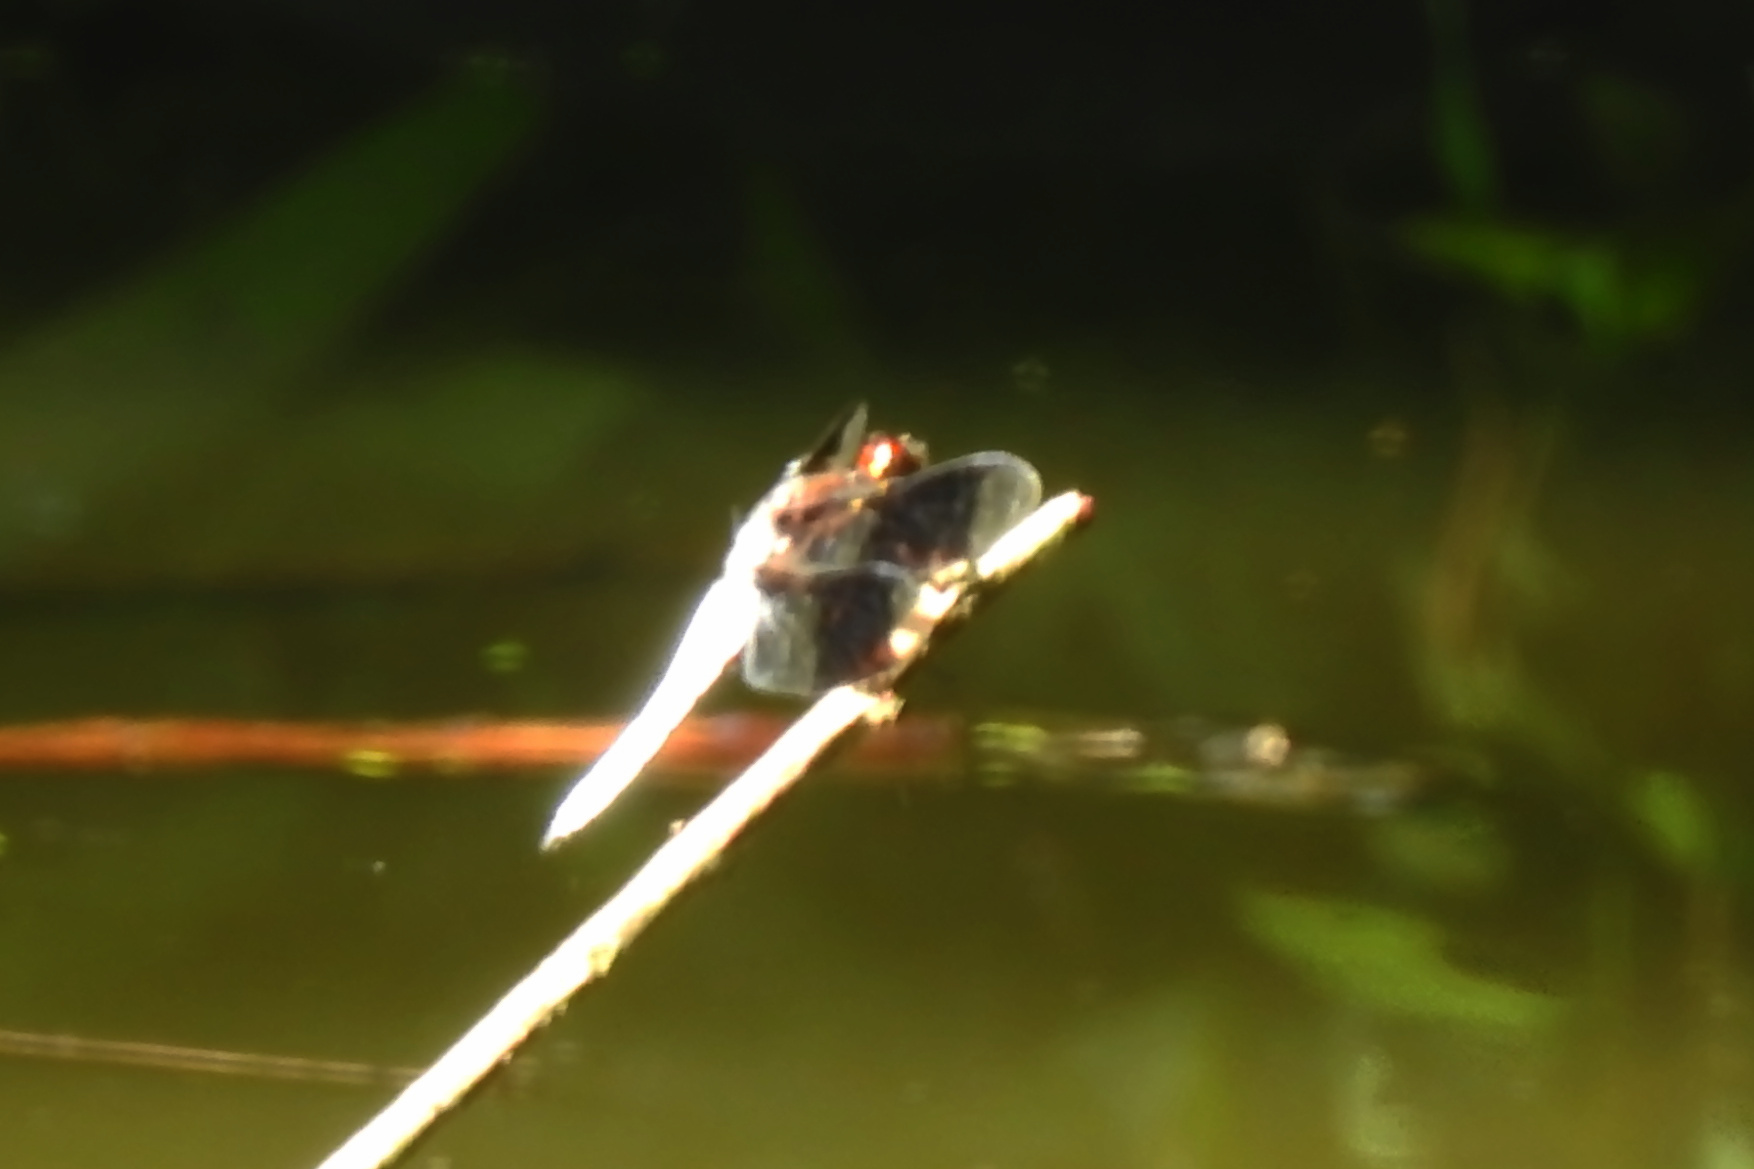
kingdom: Animalia
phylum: Arthropoda
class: Insecta
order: Odonata
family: Libellulidae
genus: Plathemis
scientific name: Plathemis lydia
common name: Common whitetail
